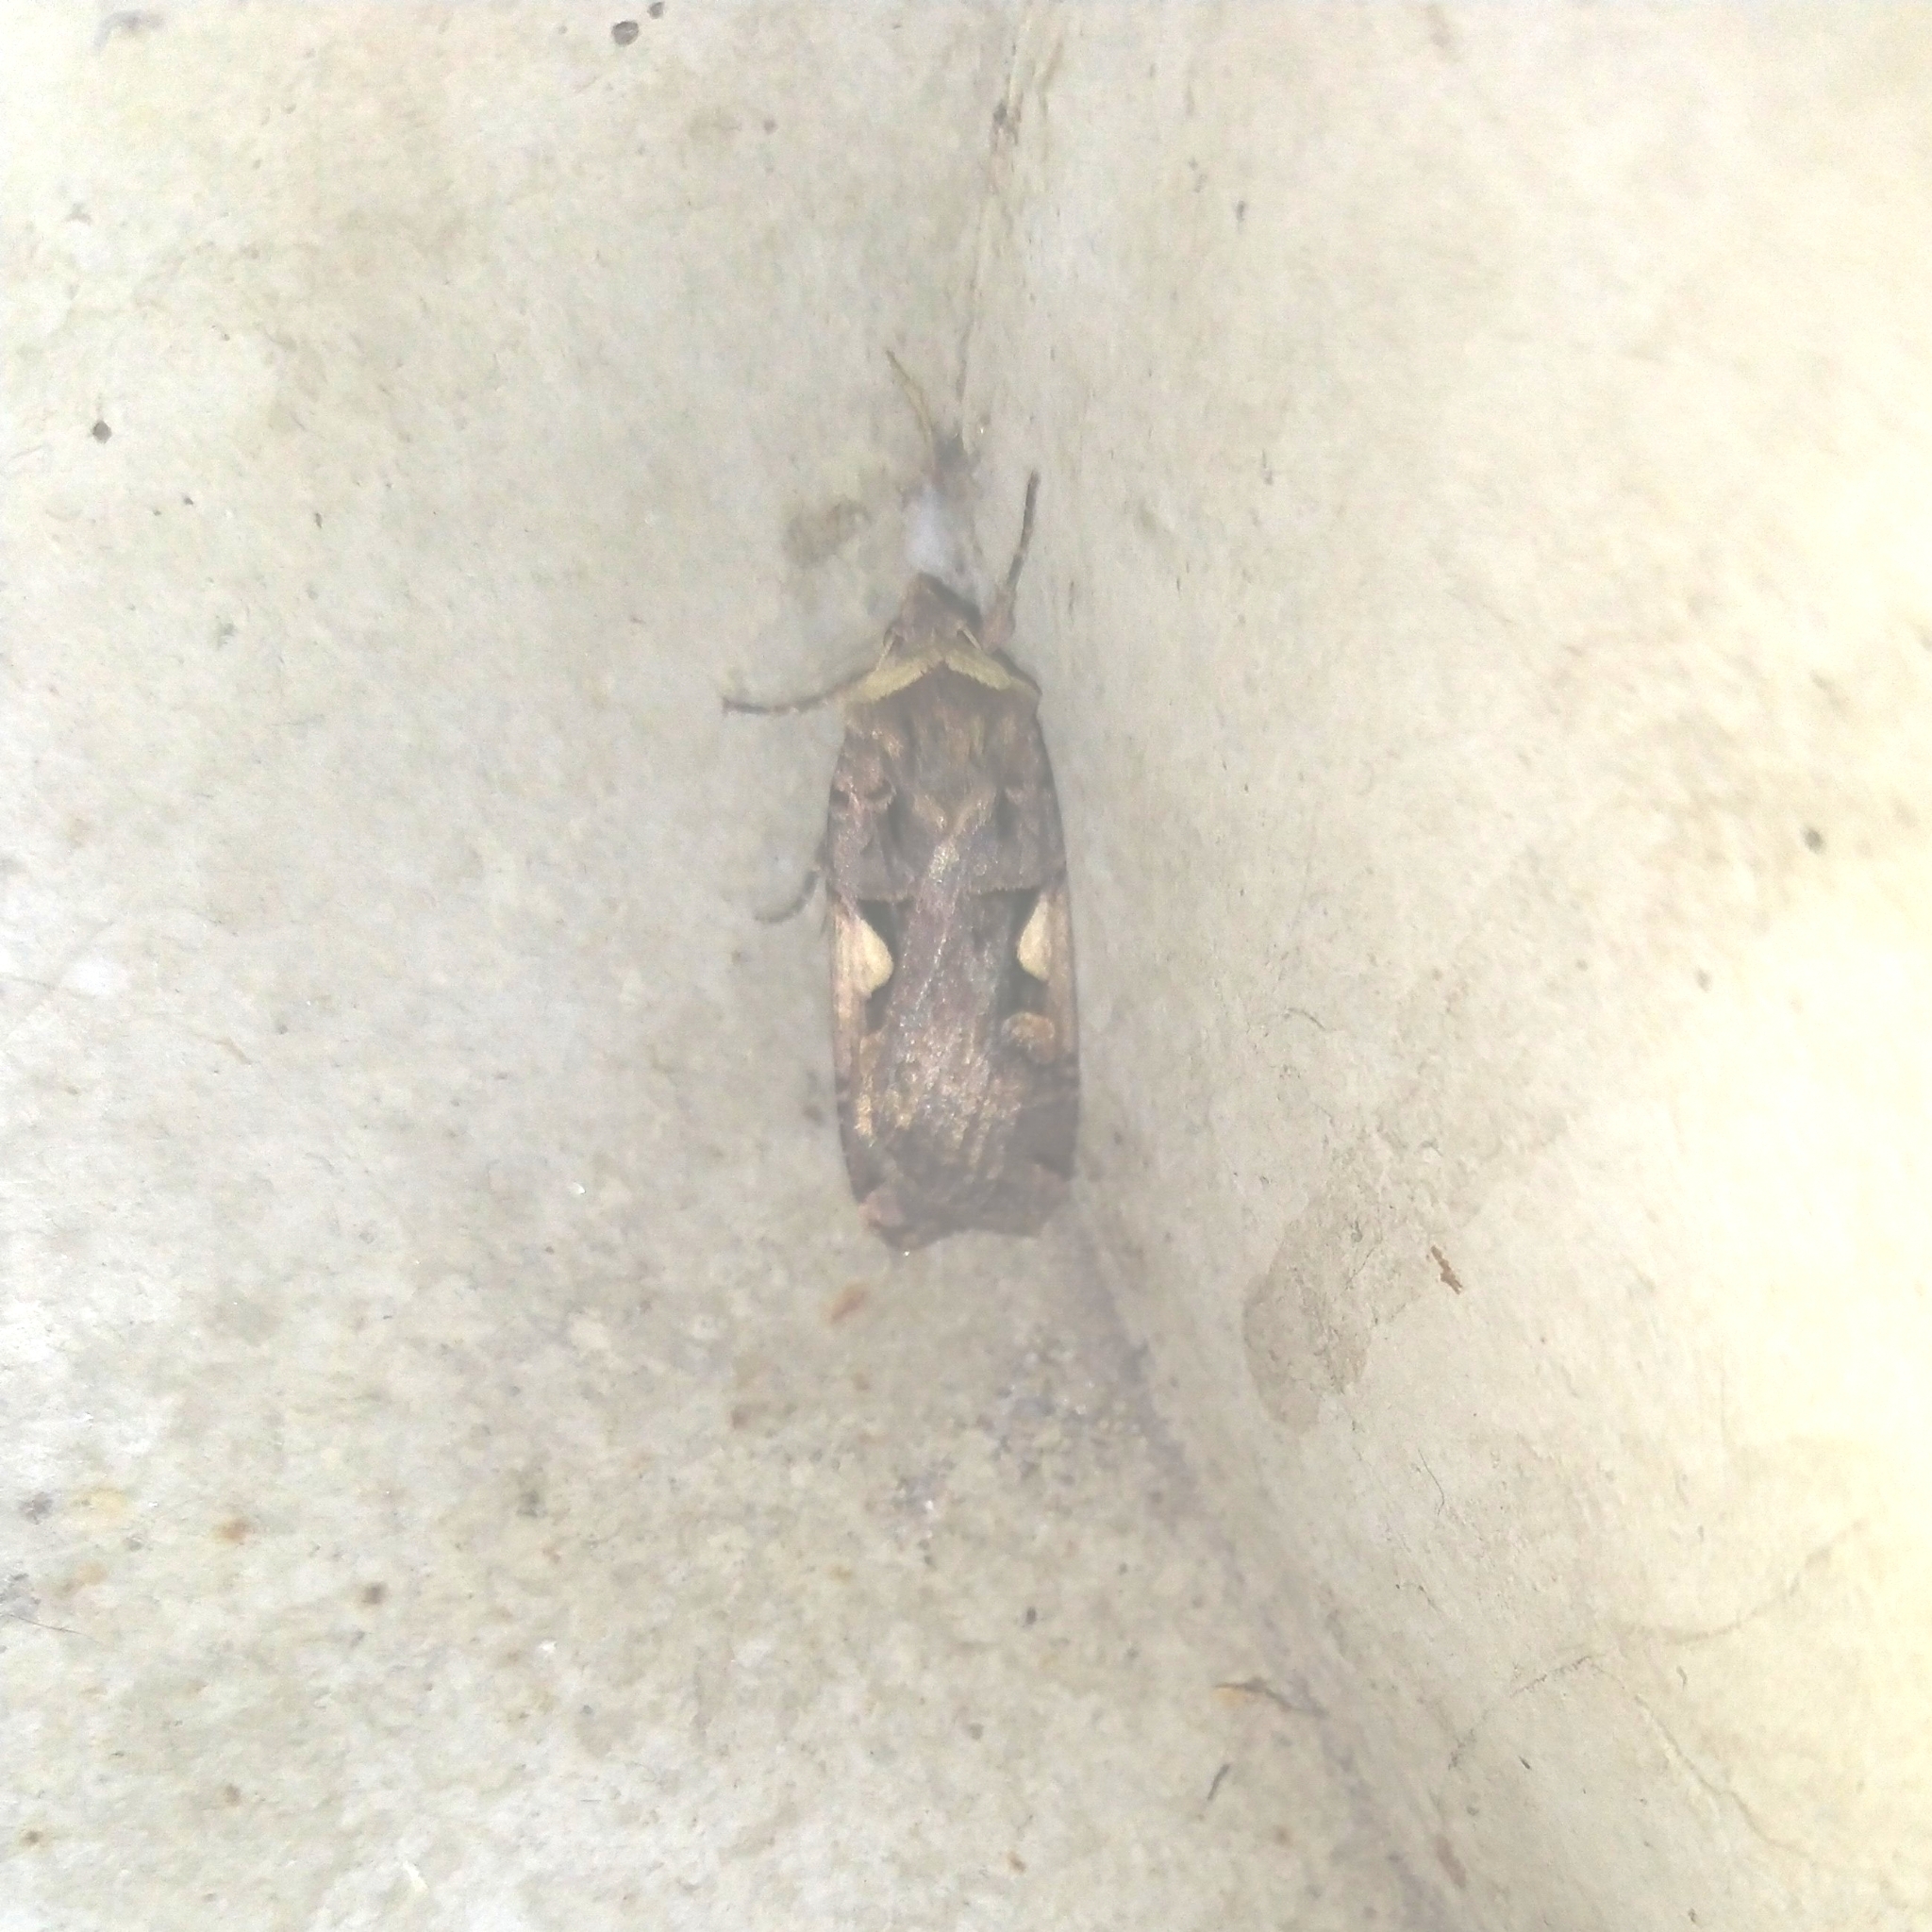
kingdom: Animalia
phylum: Arthropoda
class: Insecta
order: Lepidoptera
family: Noctuidae
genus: Xestia
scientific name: Xestia c-nigrum
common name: Setaceous hebrew character
